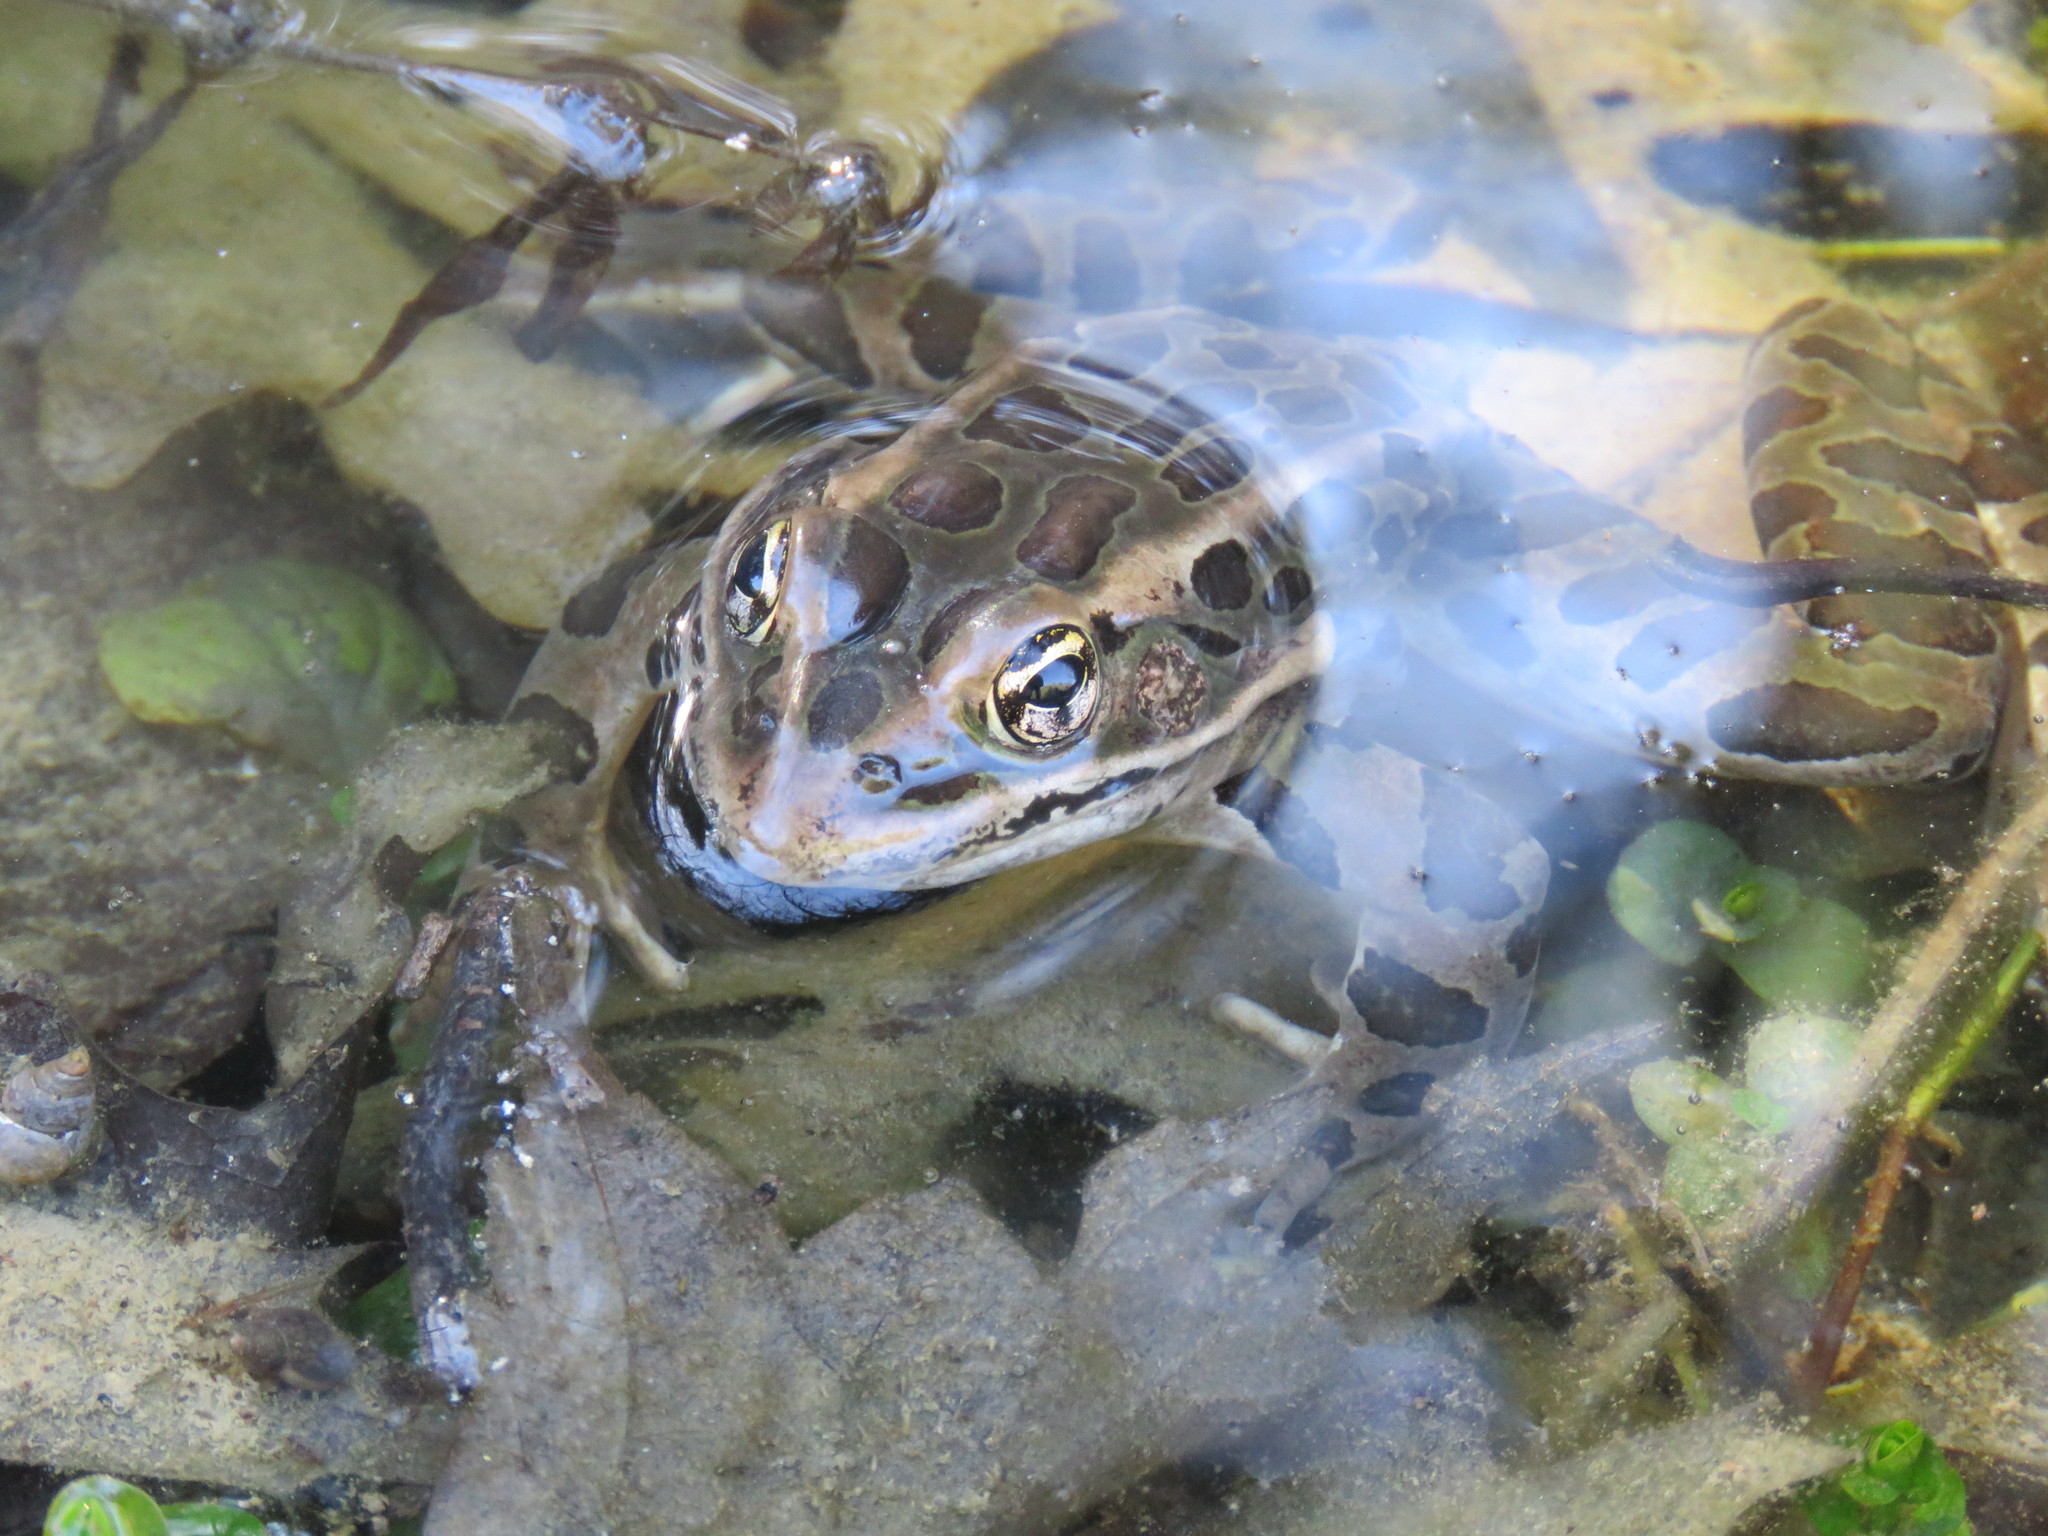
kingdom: Animalia
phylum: Chordata
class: Amphibia
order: Anura
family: Ranidae
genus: Lithobates
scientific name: Lithobates pipiens
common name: Northern leopard frog
